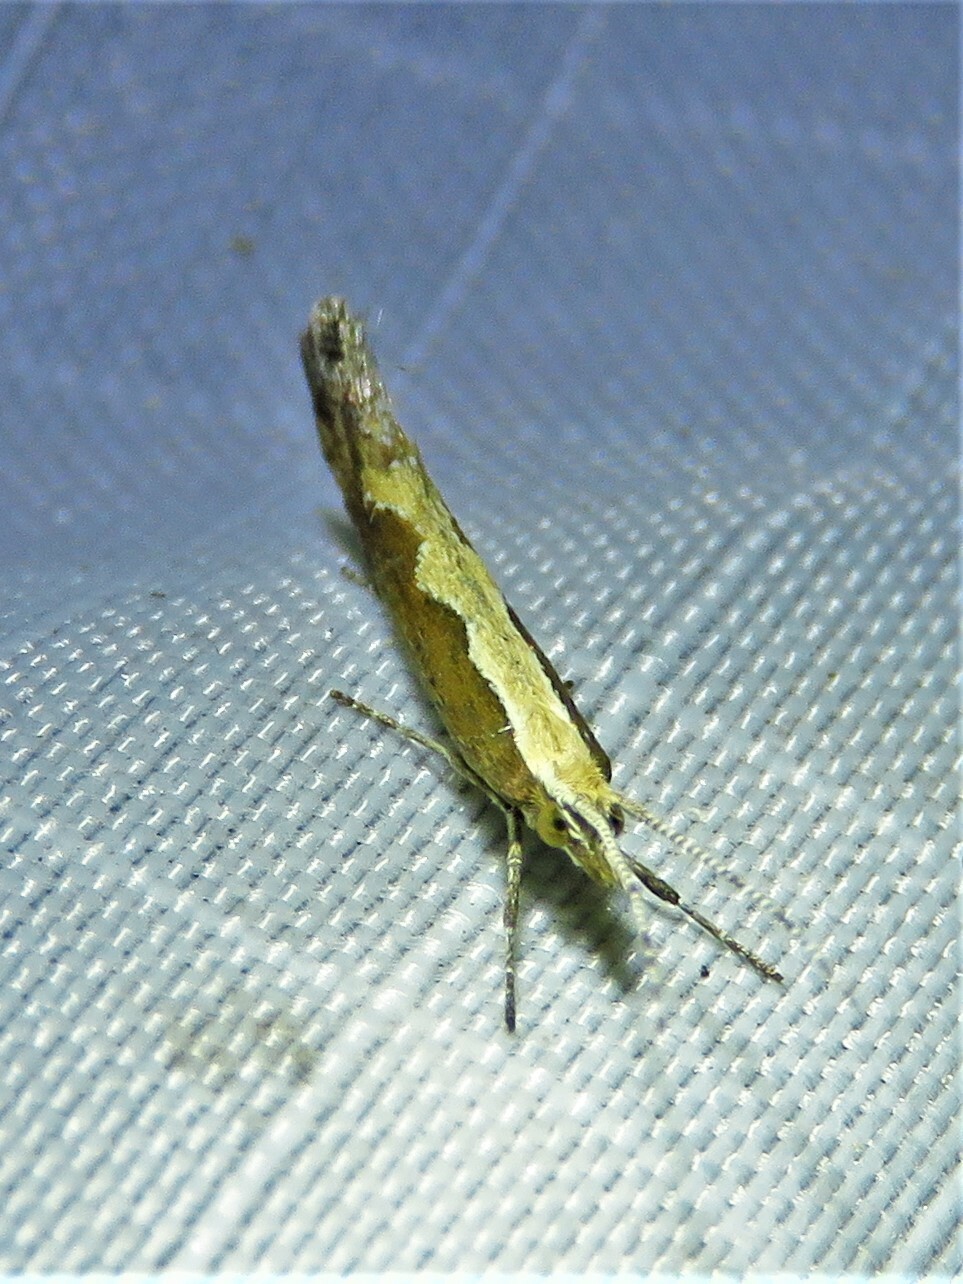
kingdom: Animalia
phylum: Arthropoda
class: Insecta
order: Lepidoptera
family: Plutellidae
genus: Plutella
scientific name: Plutella xylostella
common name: Diamond-back moth
